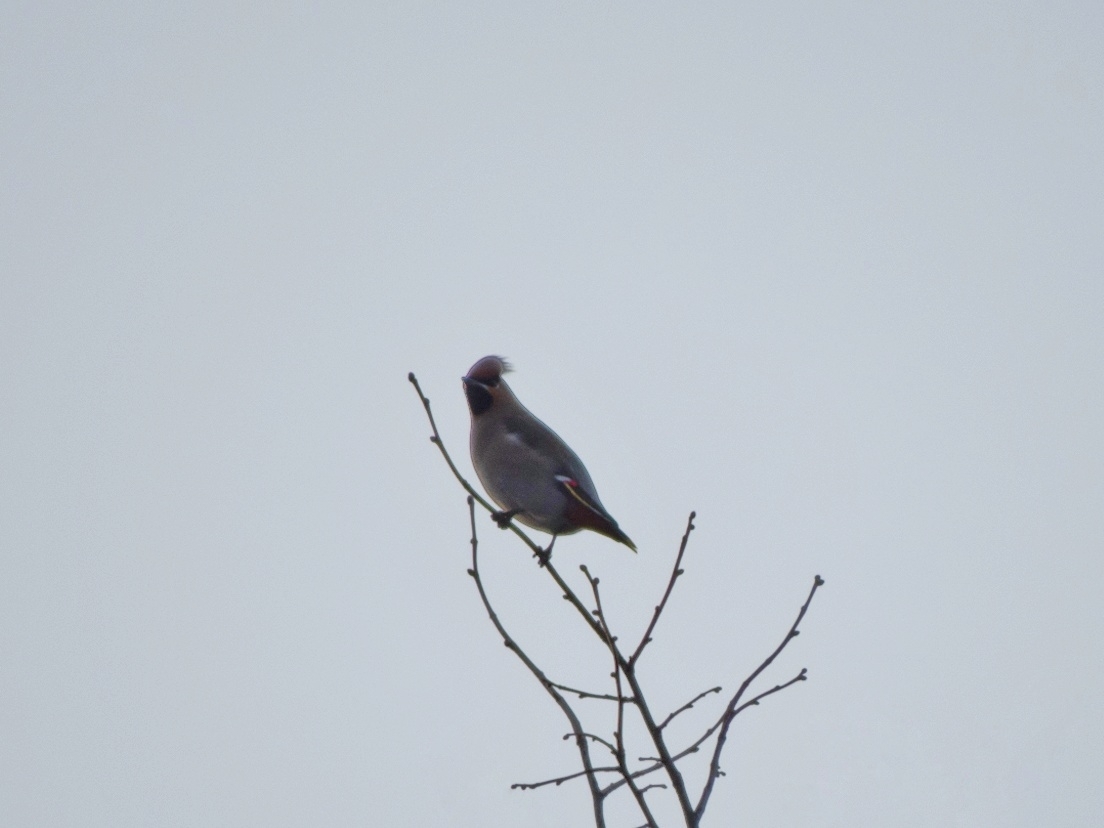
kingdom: Animalia
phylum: Chordata
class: Aves
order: Passeriformes
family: Bombycillidae
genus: Bombycilla
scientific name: Bombycilla garrulus
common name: Bohemian waxwing
